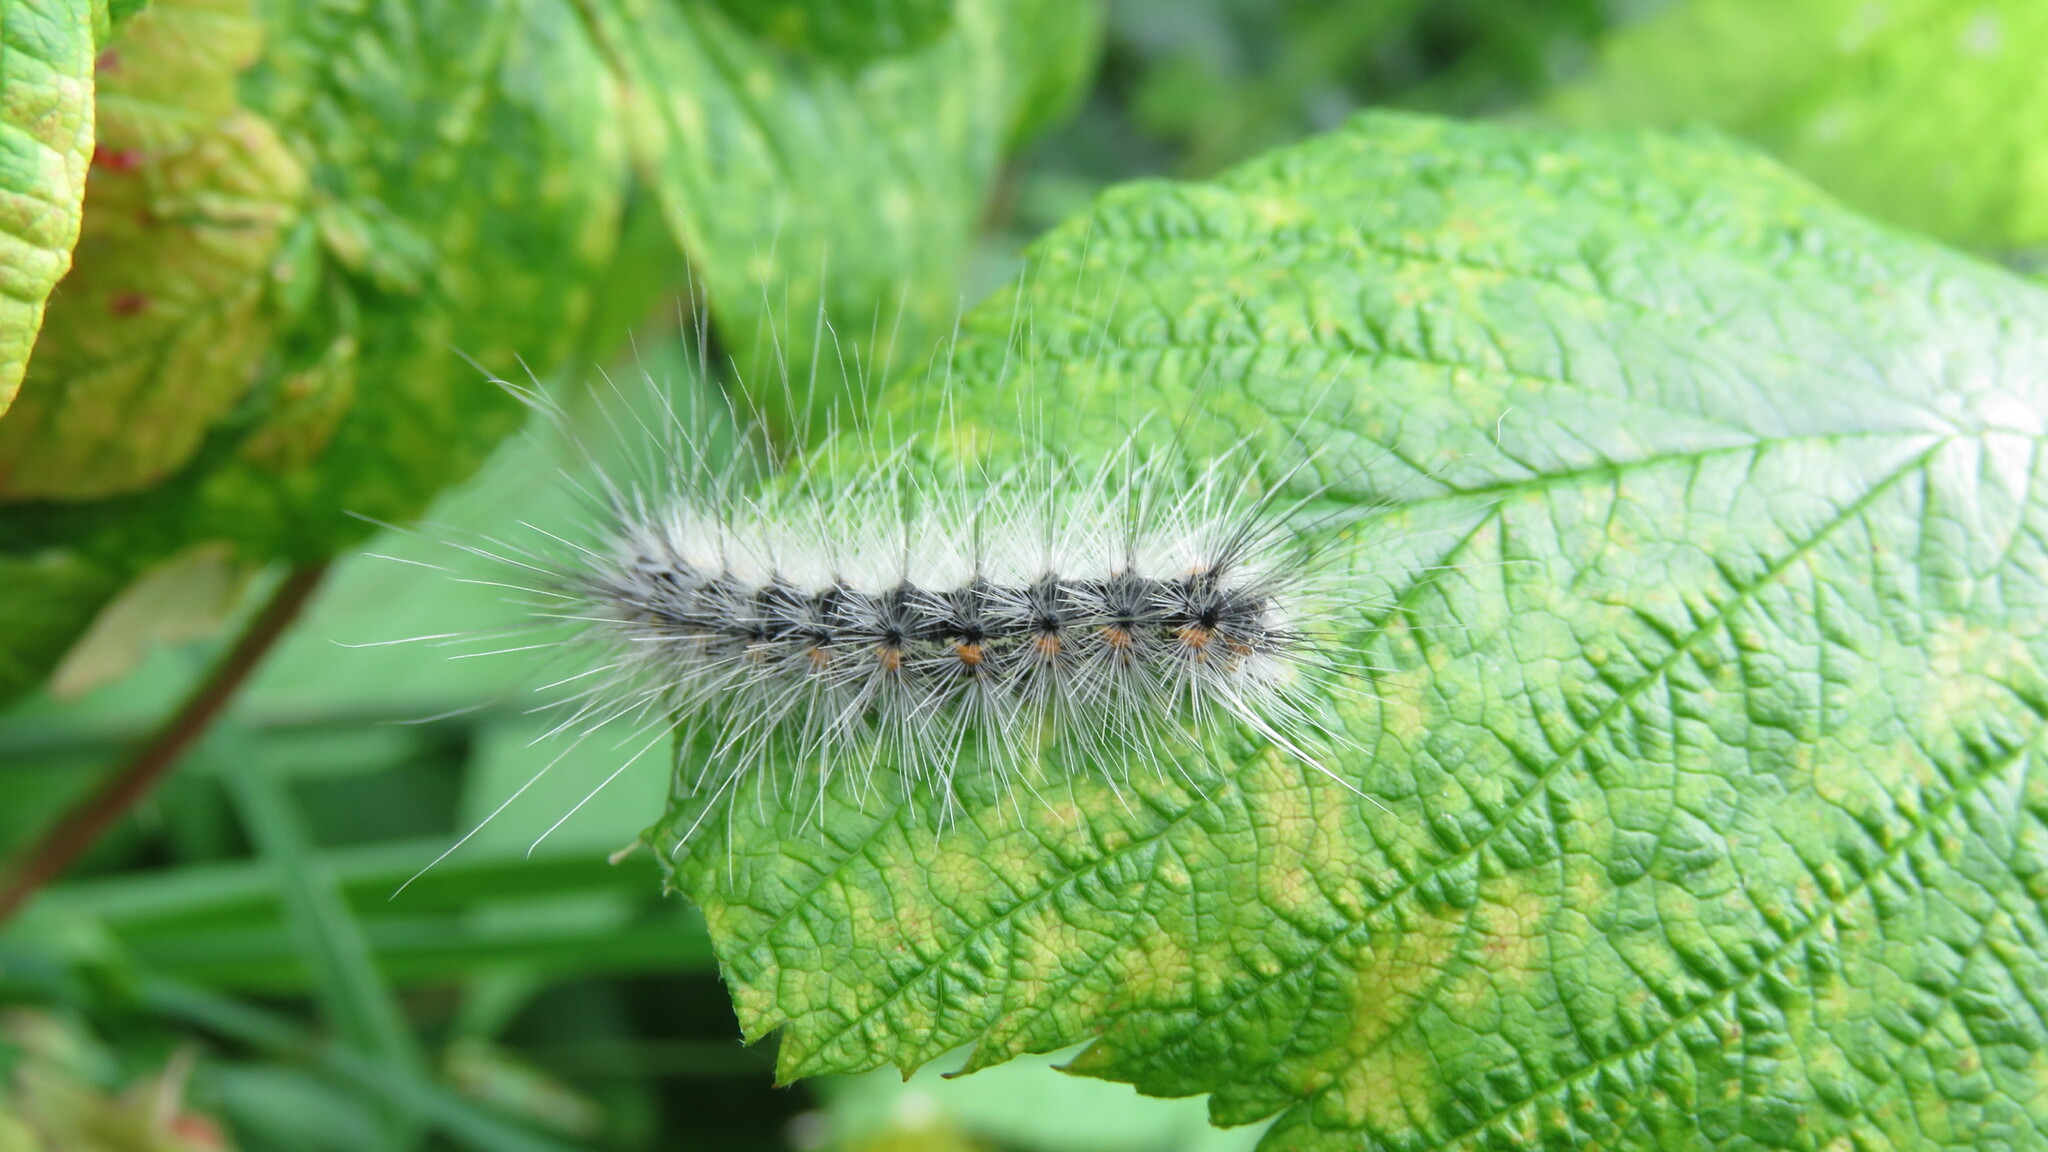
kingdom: Animalia
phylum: Arthropoda
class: Insecta
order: Lepidoptera
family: Erebidae
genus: Hyphantria
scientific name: Hyphantria cunea
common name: American white moth
